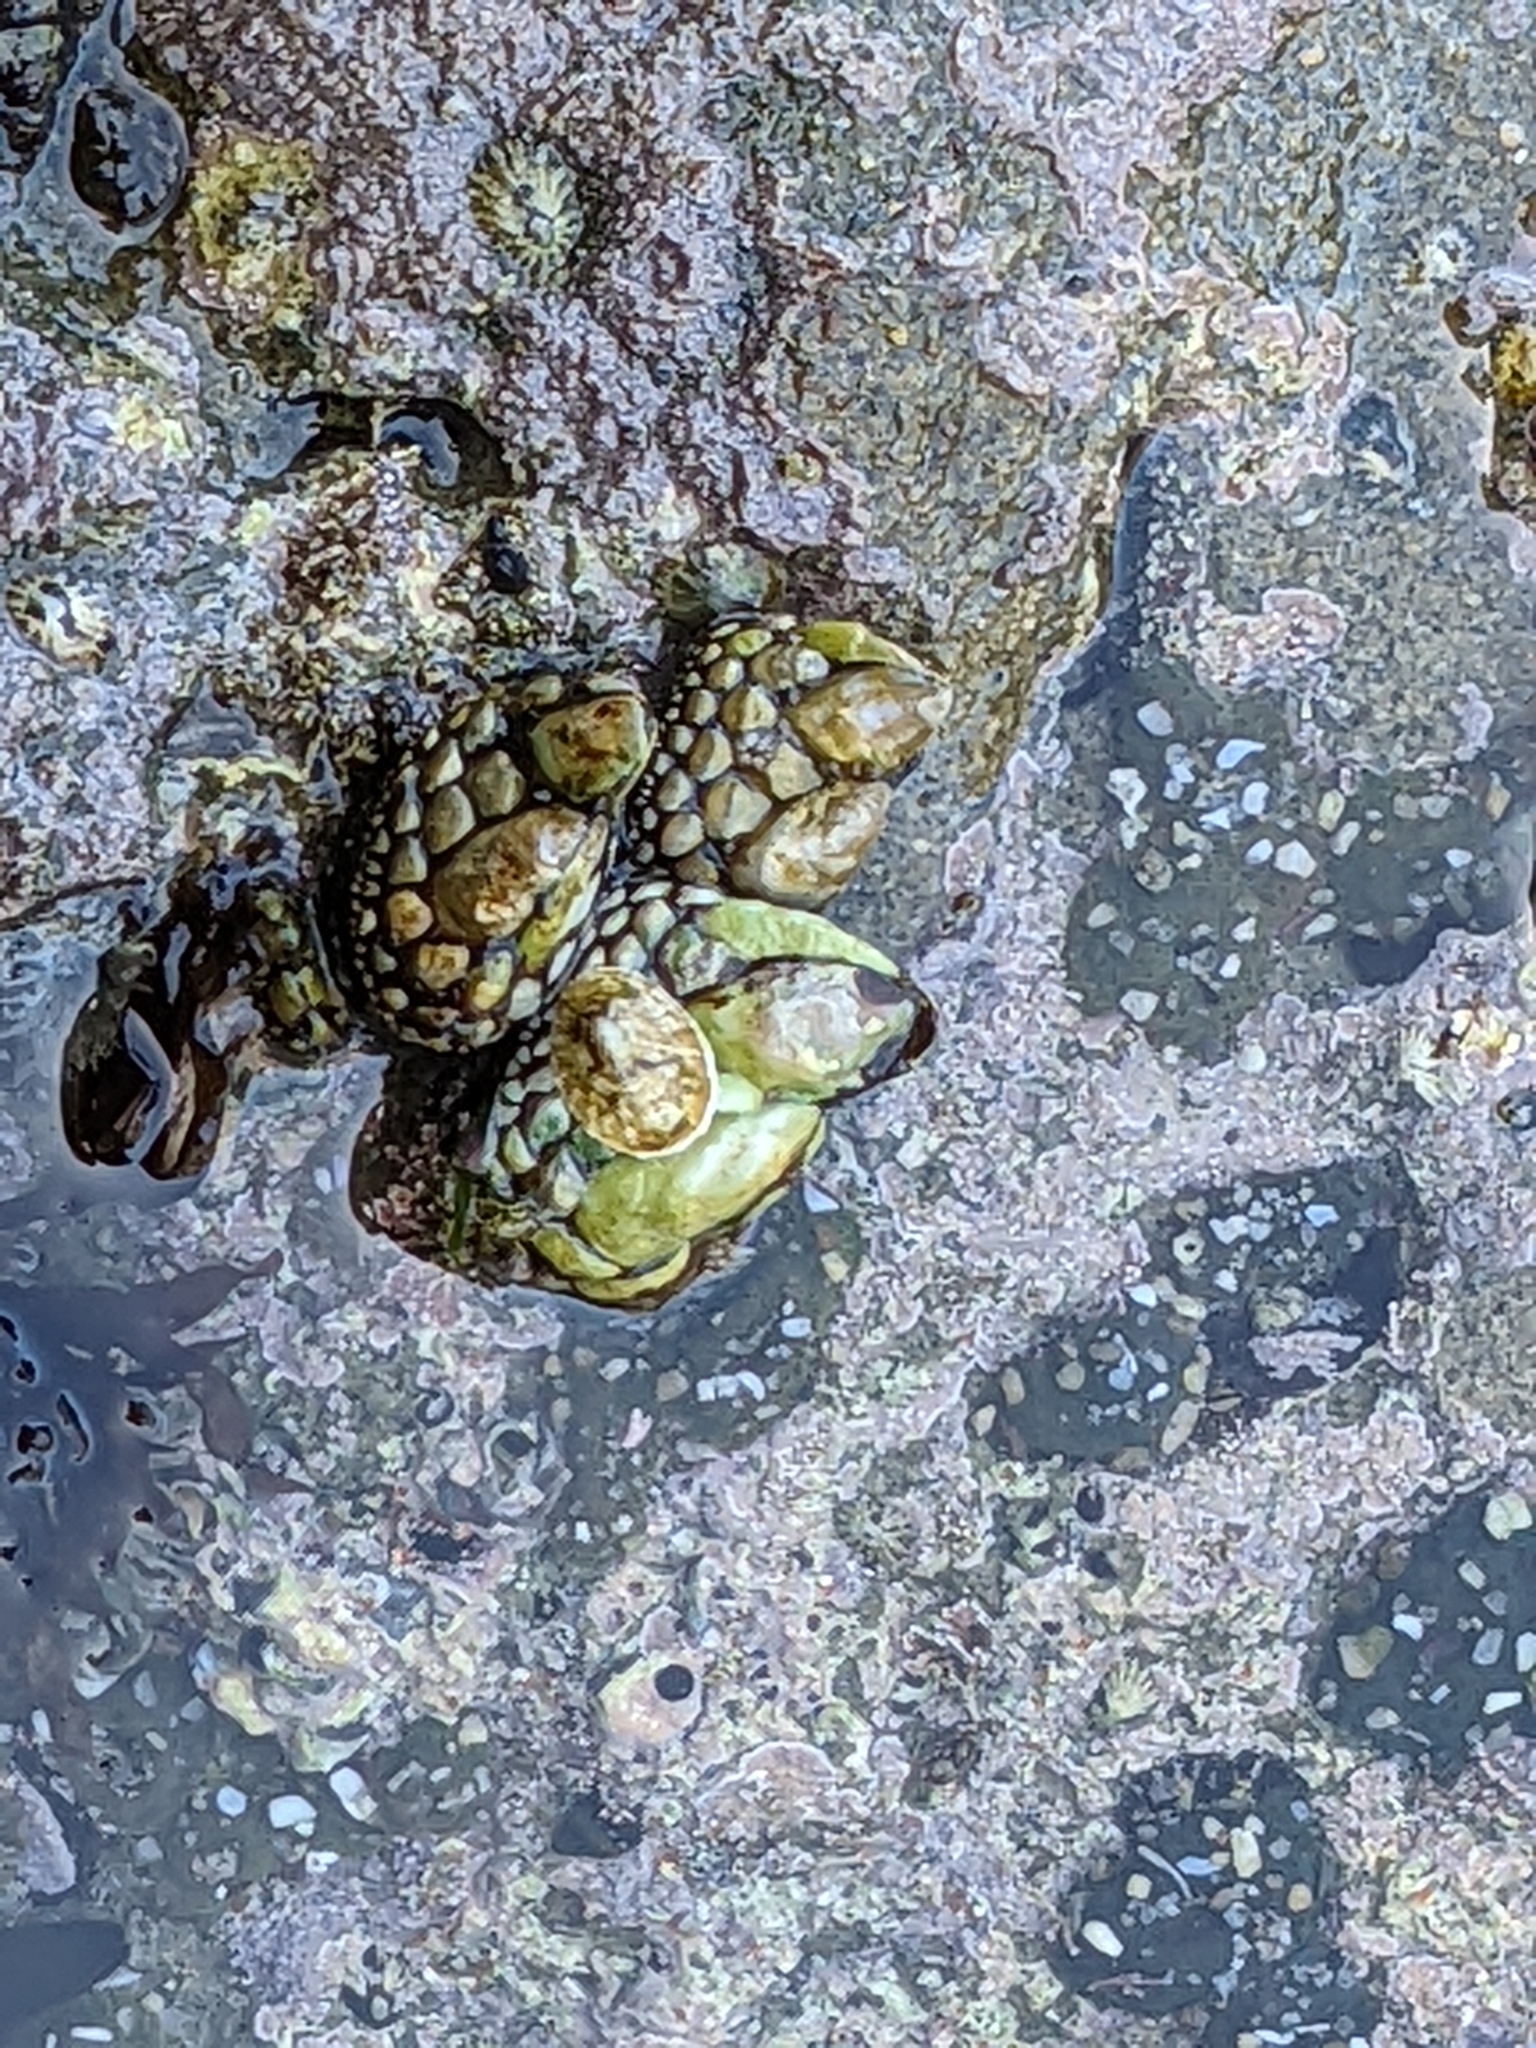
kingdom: Animalia
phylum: Arthropoda
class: Maxillopoda
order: Pedunculata
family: Pollicipedidae
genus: Pollicipes
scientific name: Pollicipes polymerus
